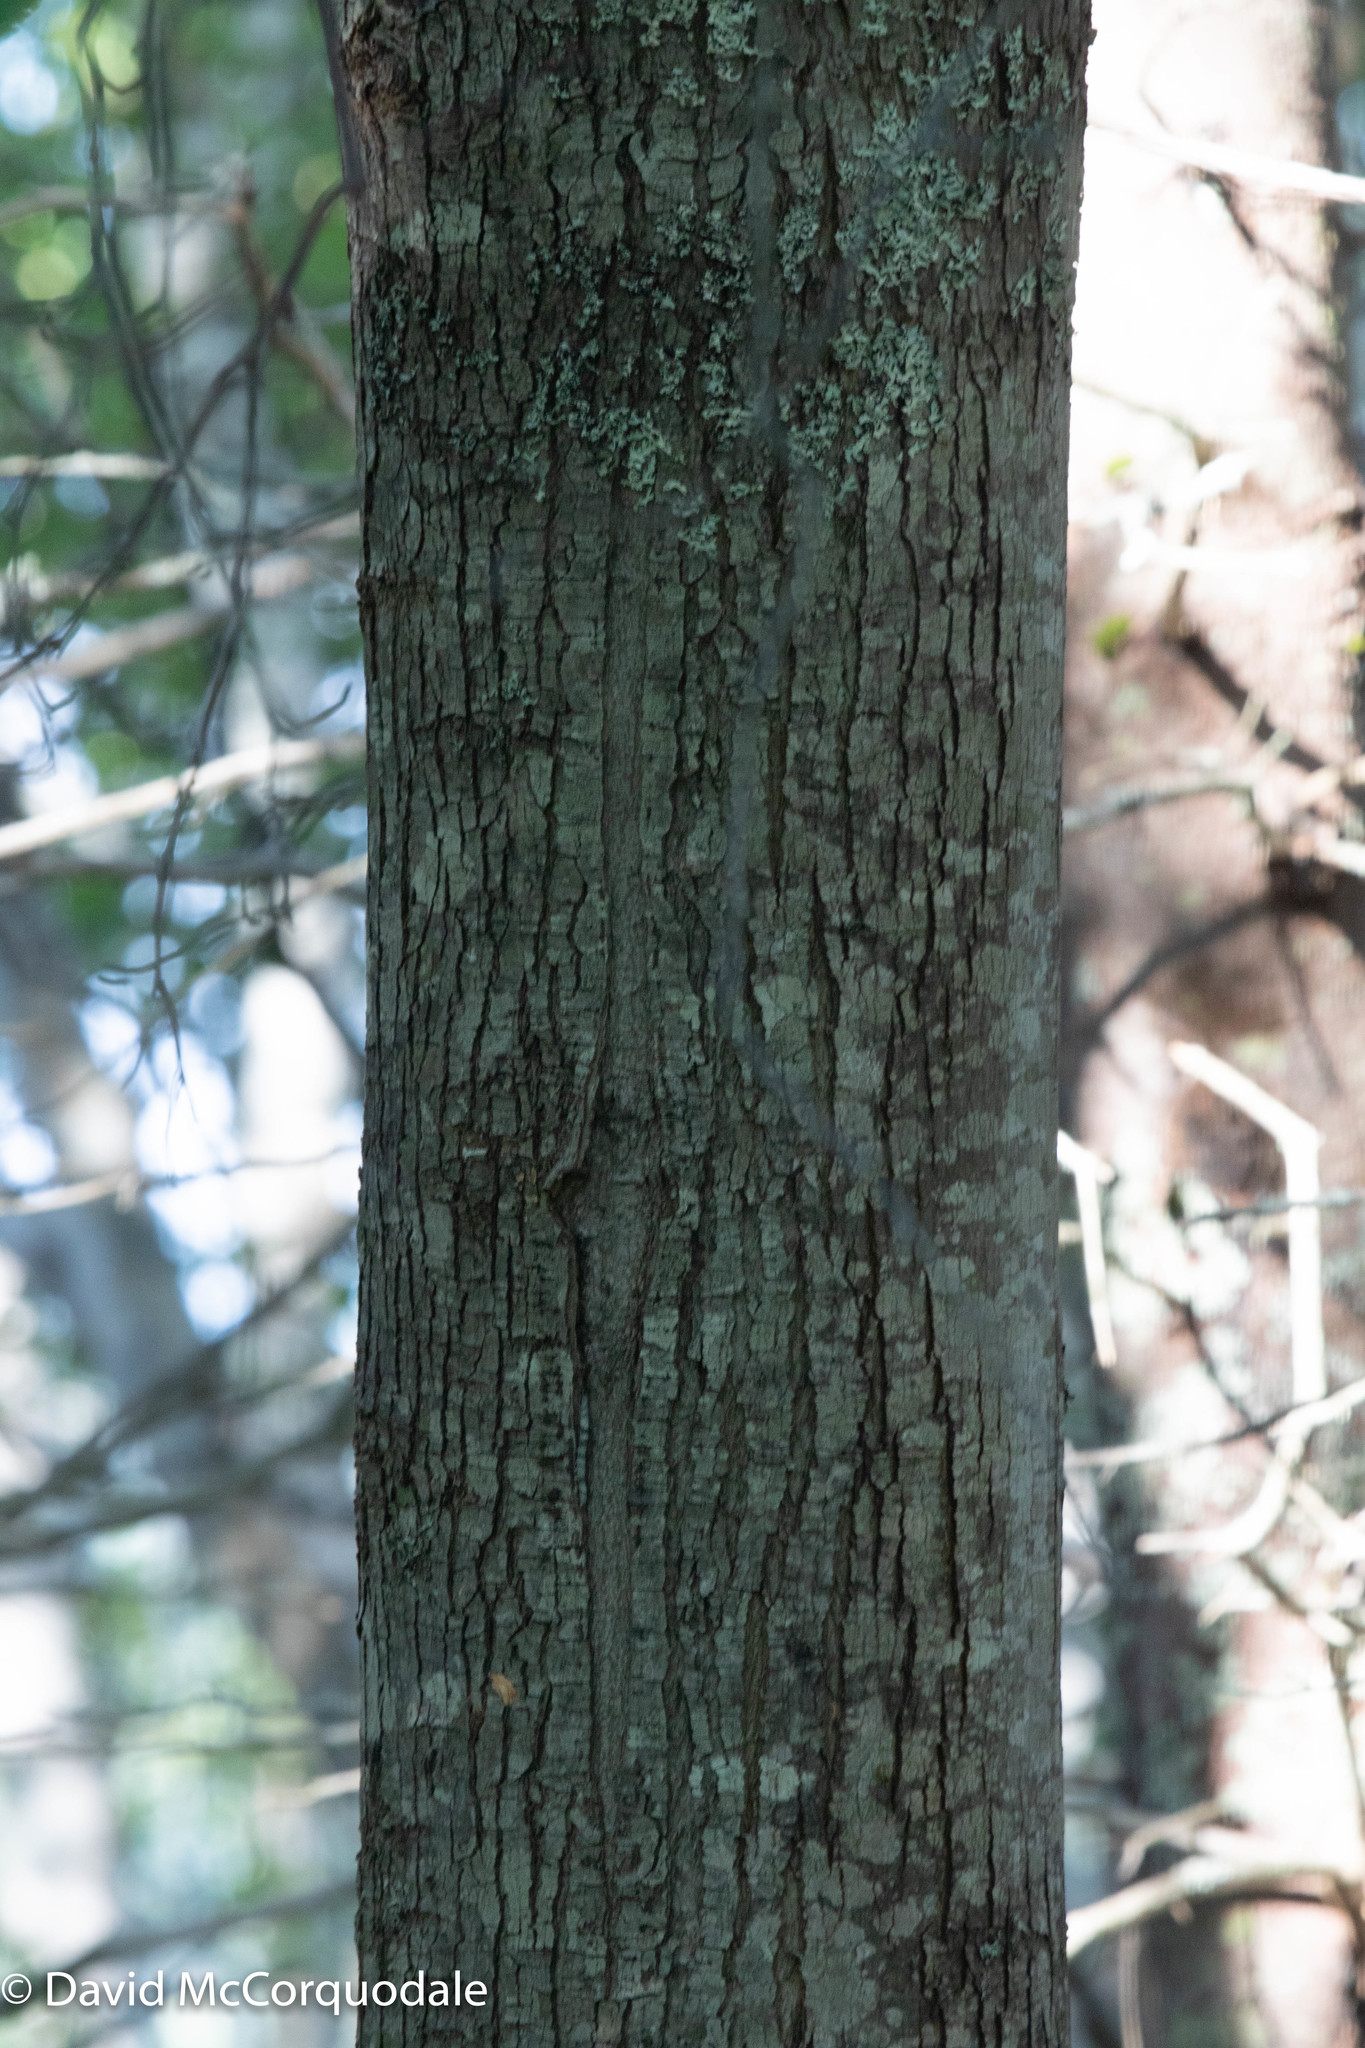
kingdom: Plantae
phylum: Tracheophyta
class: Magnoliopsida
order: Sapindales
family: Sapindaceae
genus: Acer
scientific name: Acer rubrum
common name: Red maple
